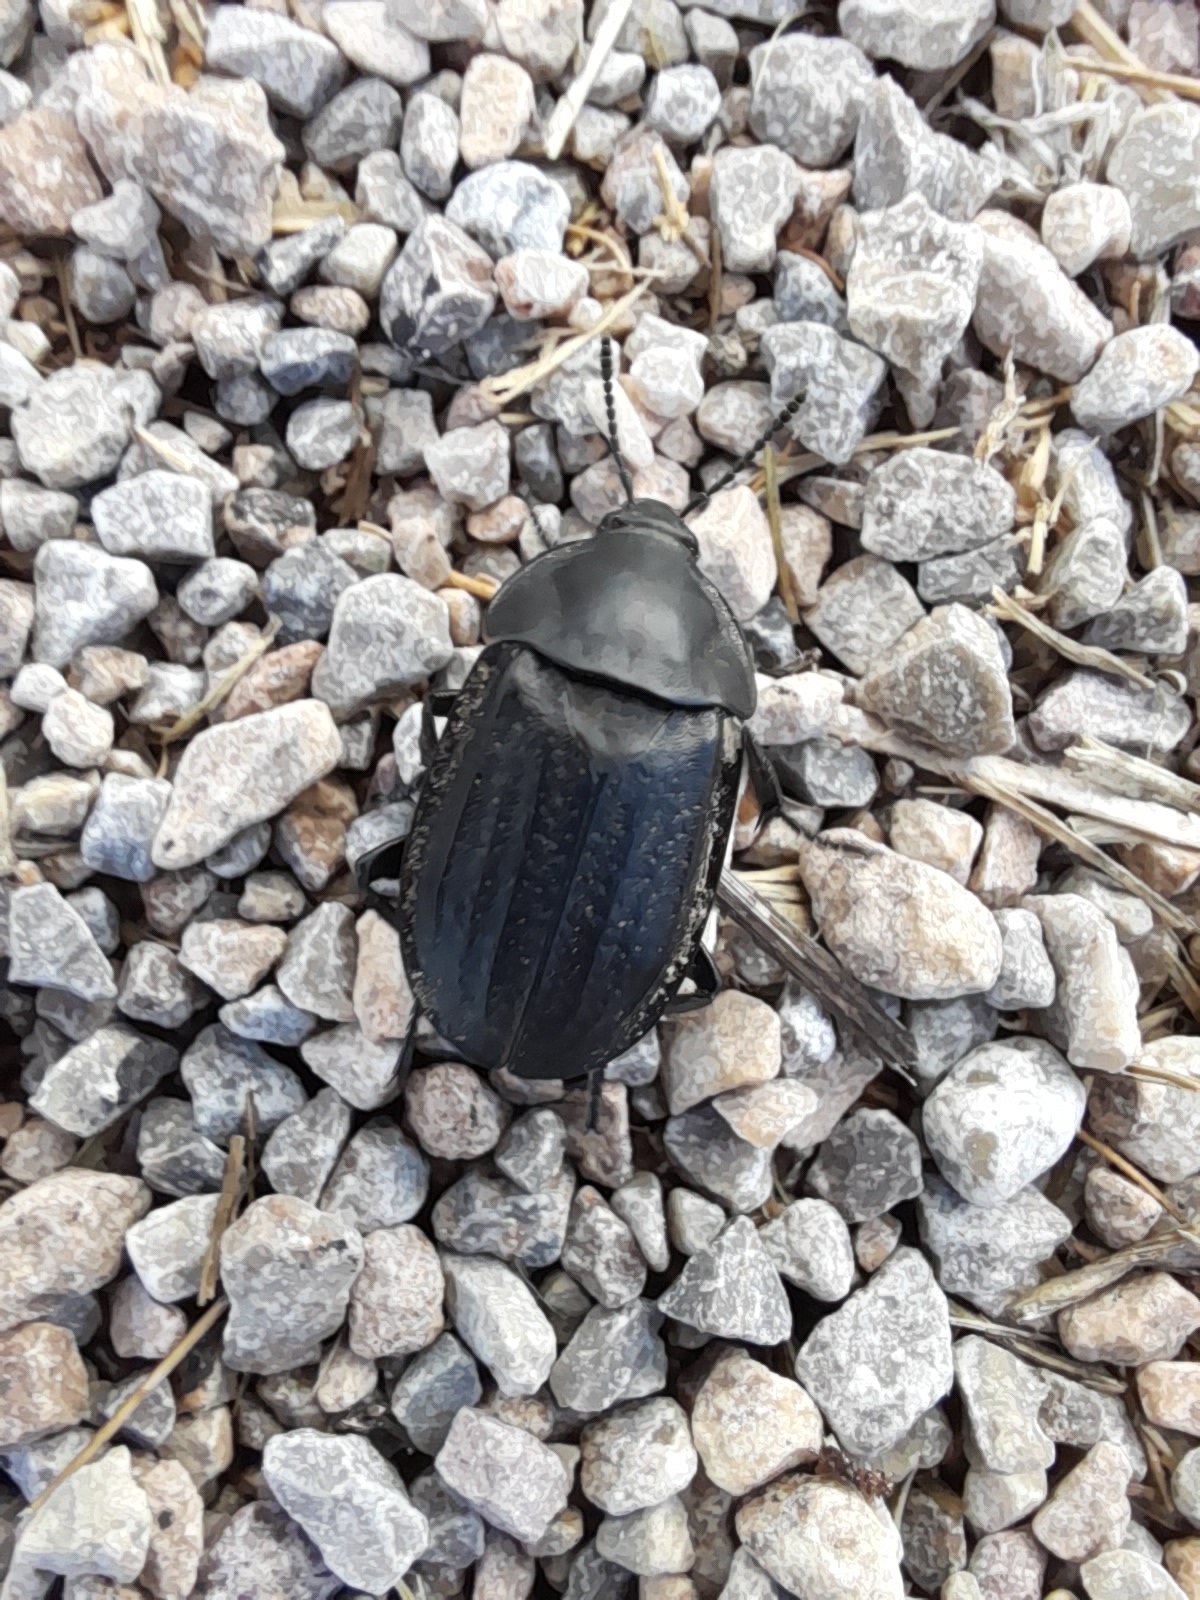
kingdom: Animalia
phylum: Arthropoda
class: Insecta
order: Coleoptera
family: Staphylinidae
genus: Silpha
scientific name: Silpha olivieri
